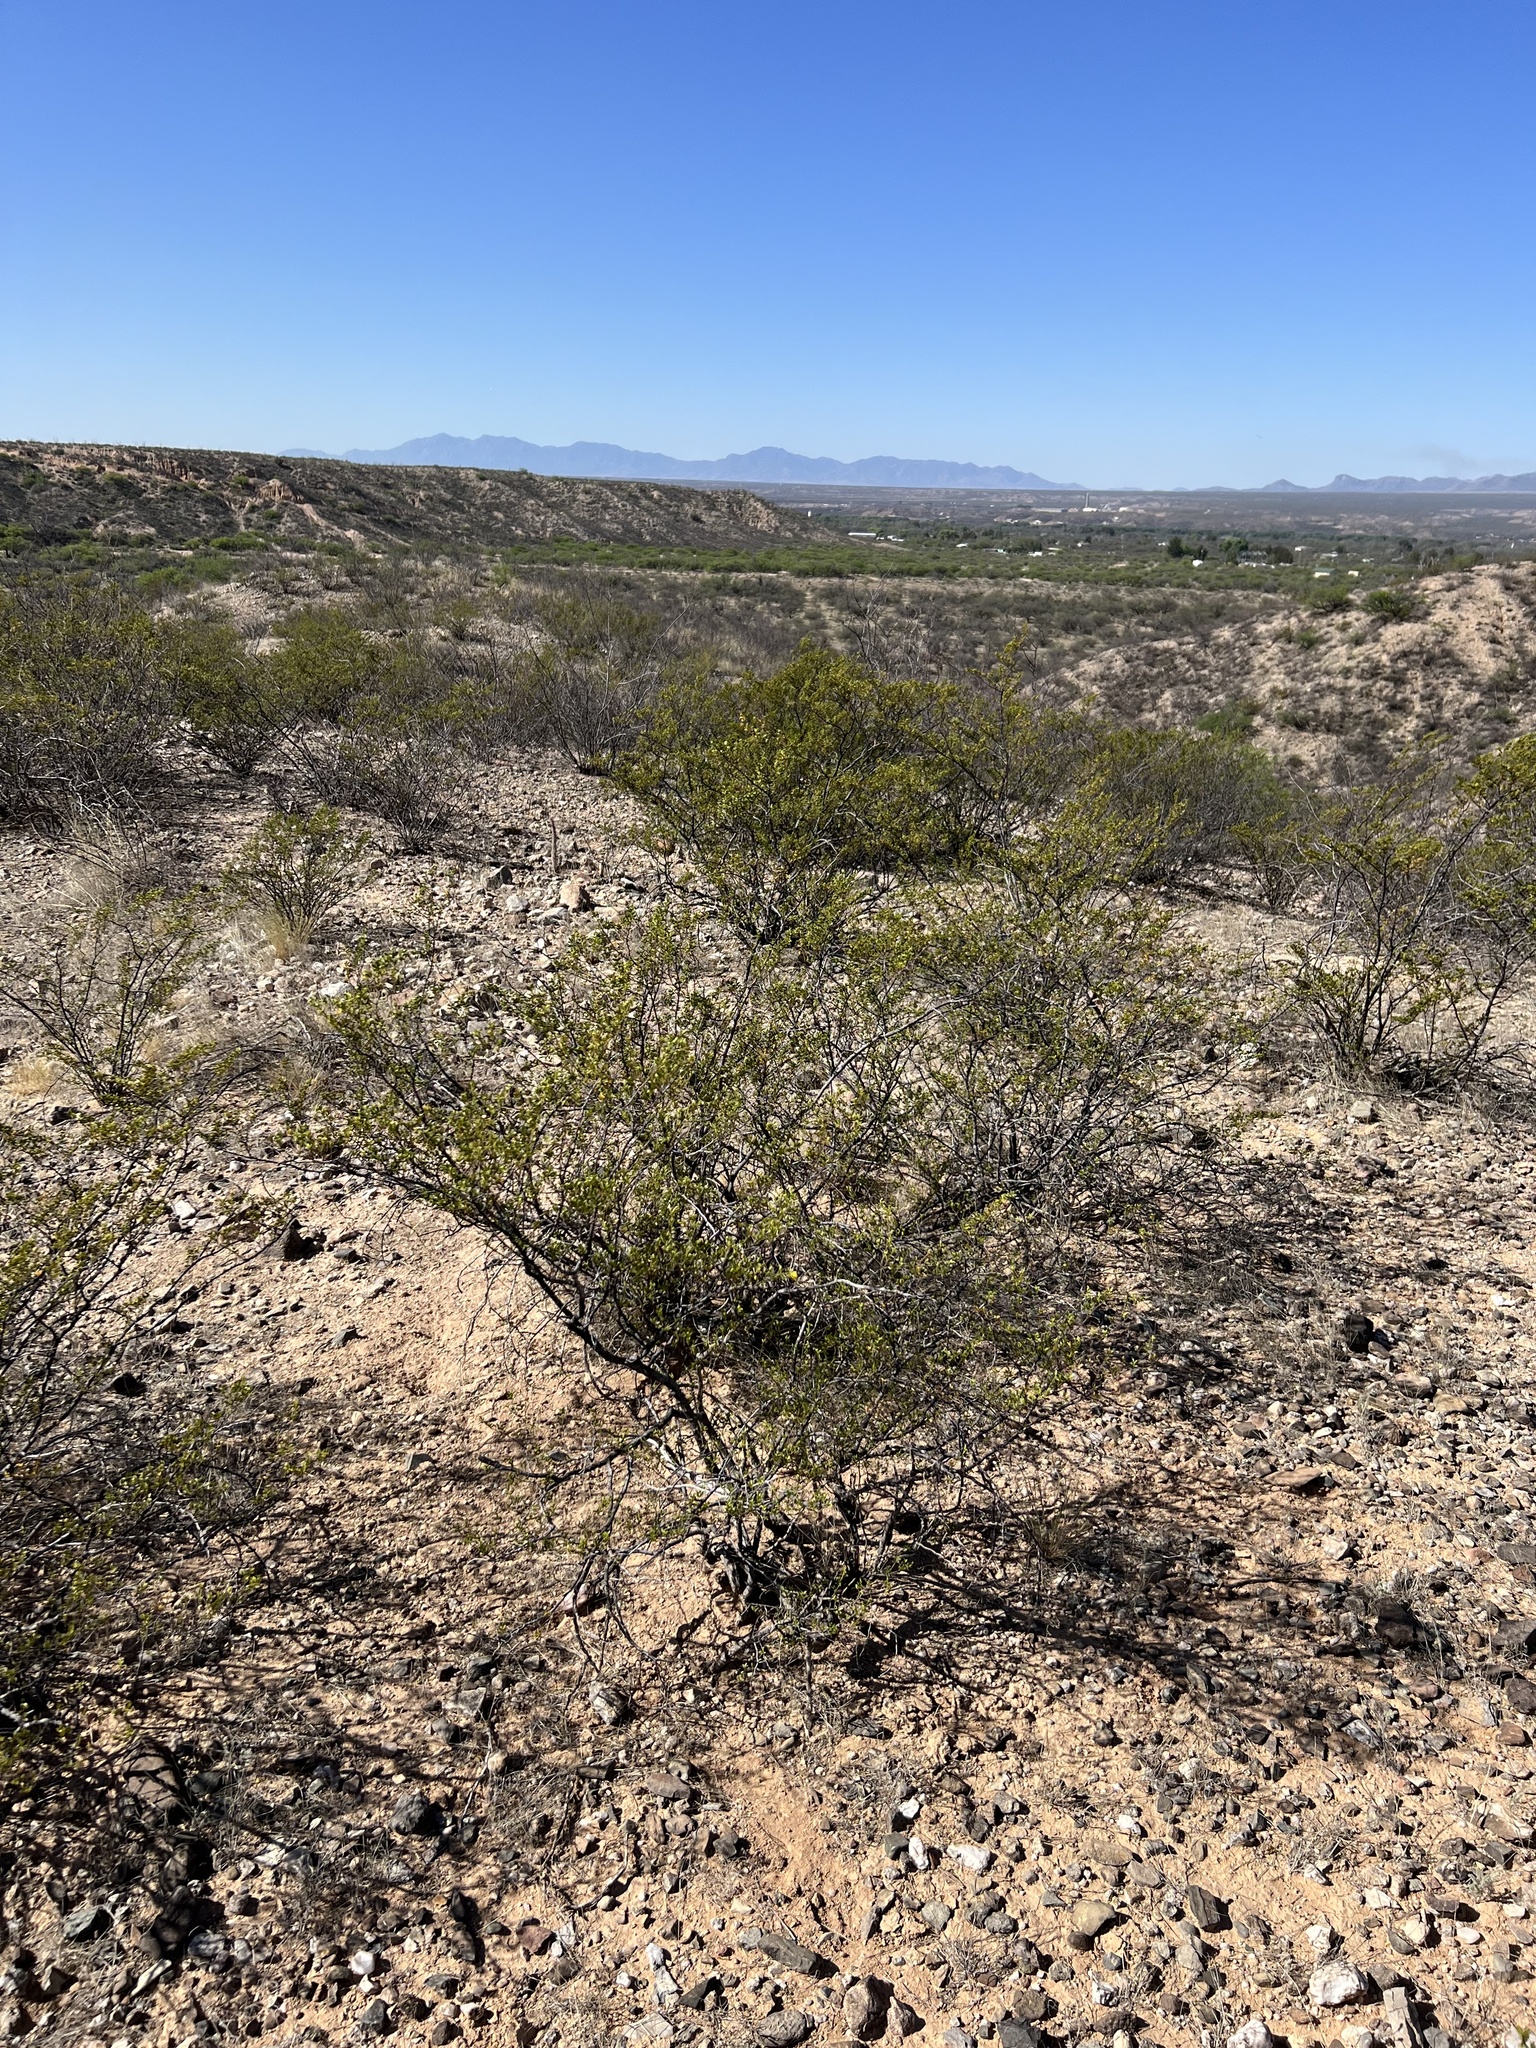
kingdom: Plantae
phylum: Tracheophyta
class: Magnoliopsida
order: Zygophyllales
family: Zygophyllaceae
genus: Larrea
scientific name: Larrea tridentata
